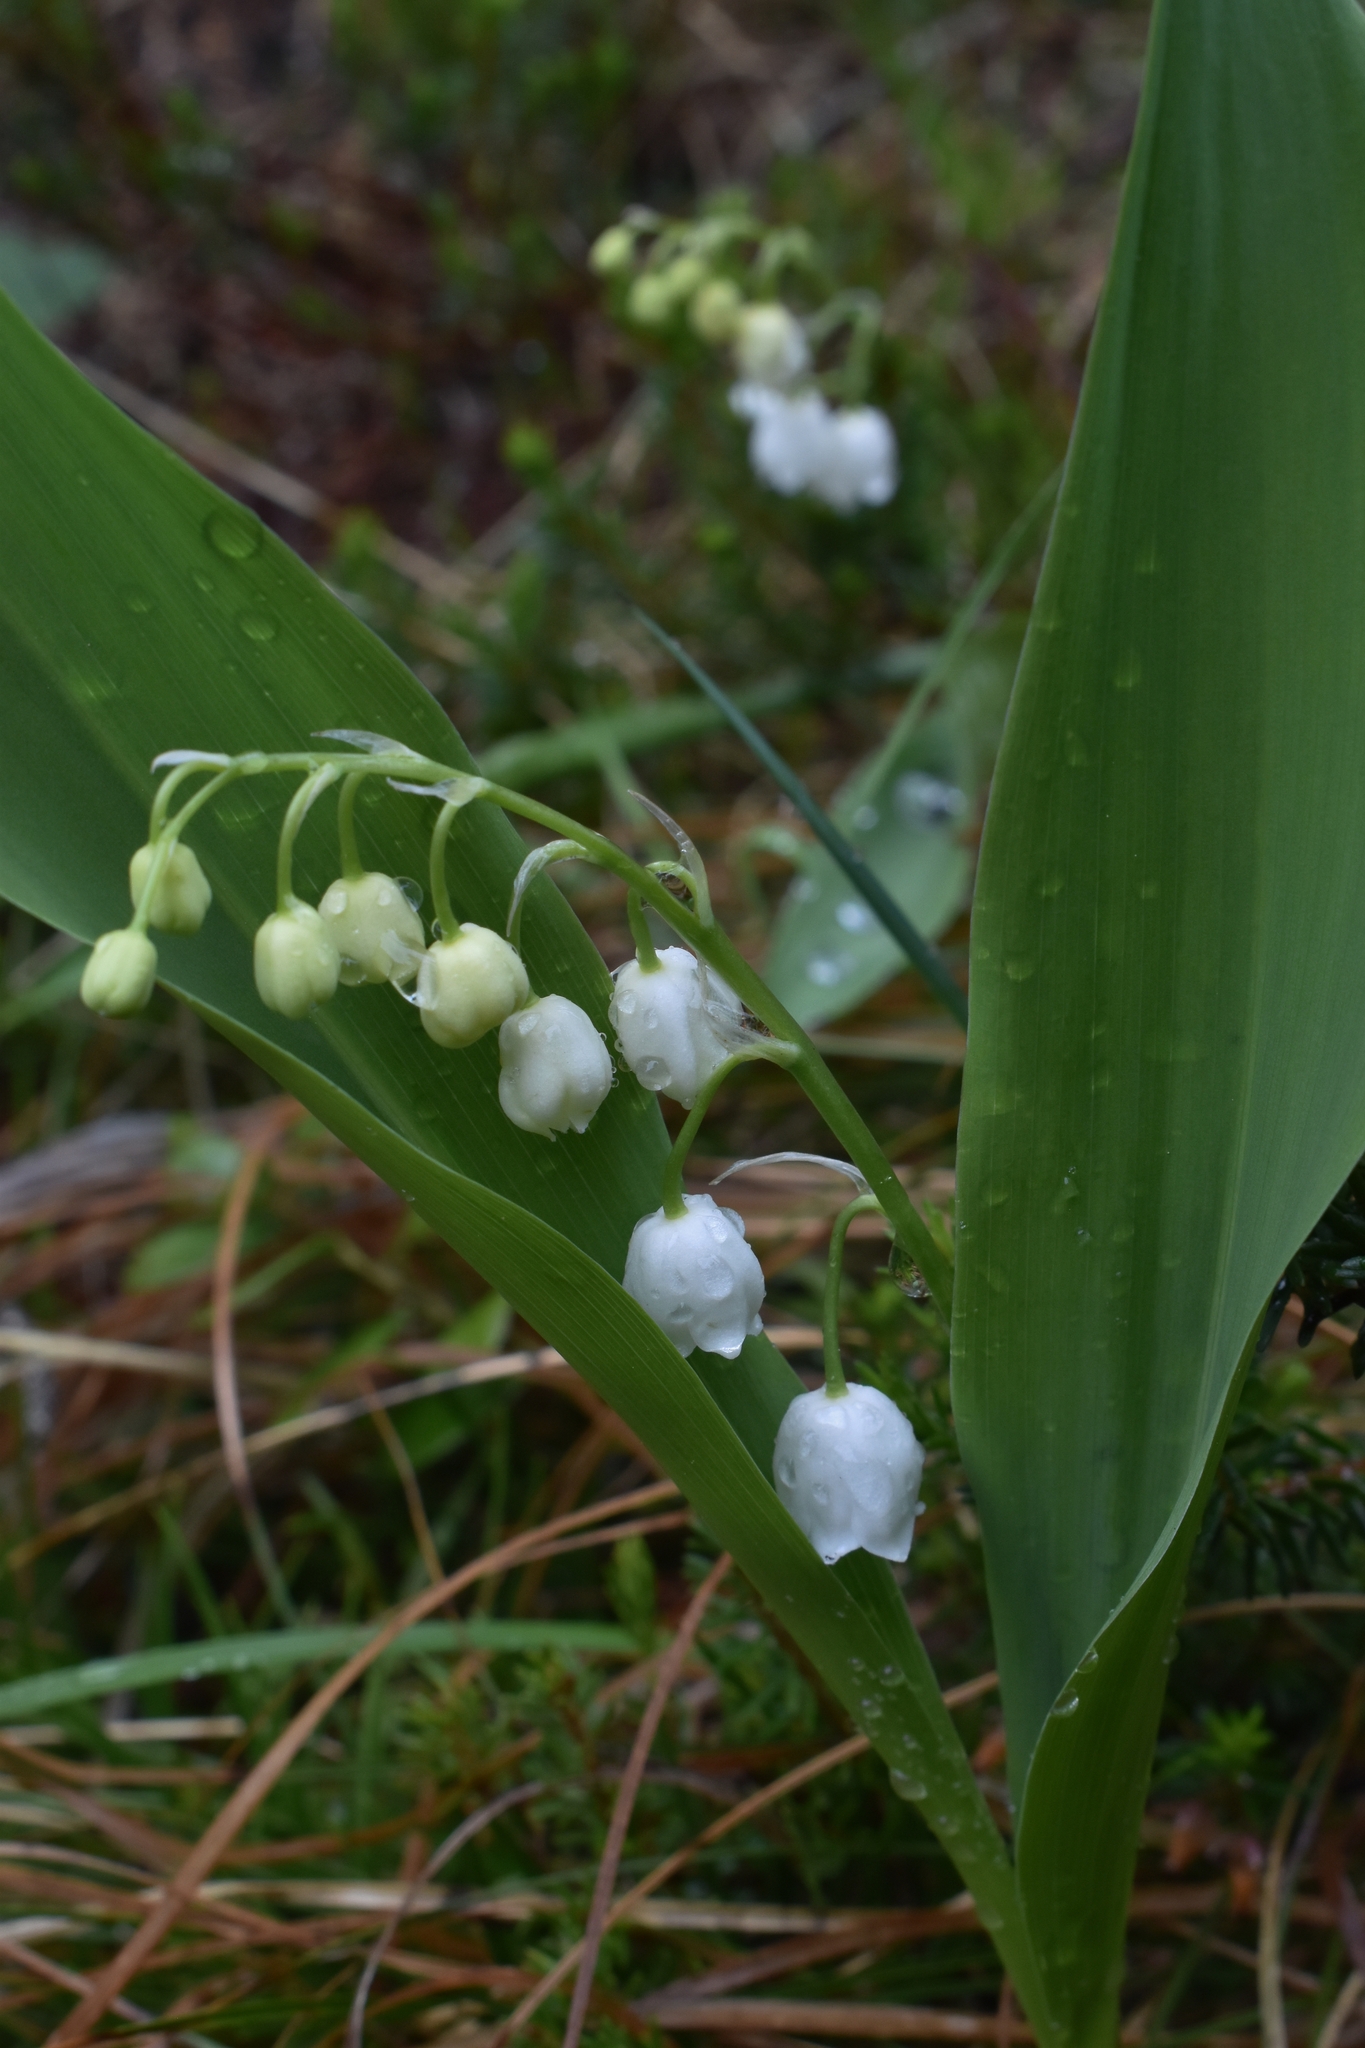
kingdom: Plantae
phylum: Tracheophyta
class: Liliopsida
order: Asparagales
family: Asparagaceae
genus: Convallaria
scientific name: Convallaria majalis
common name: Lily-of-the-valley
